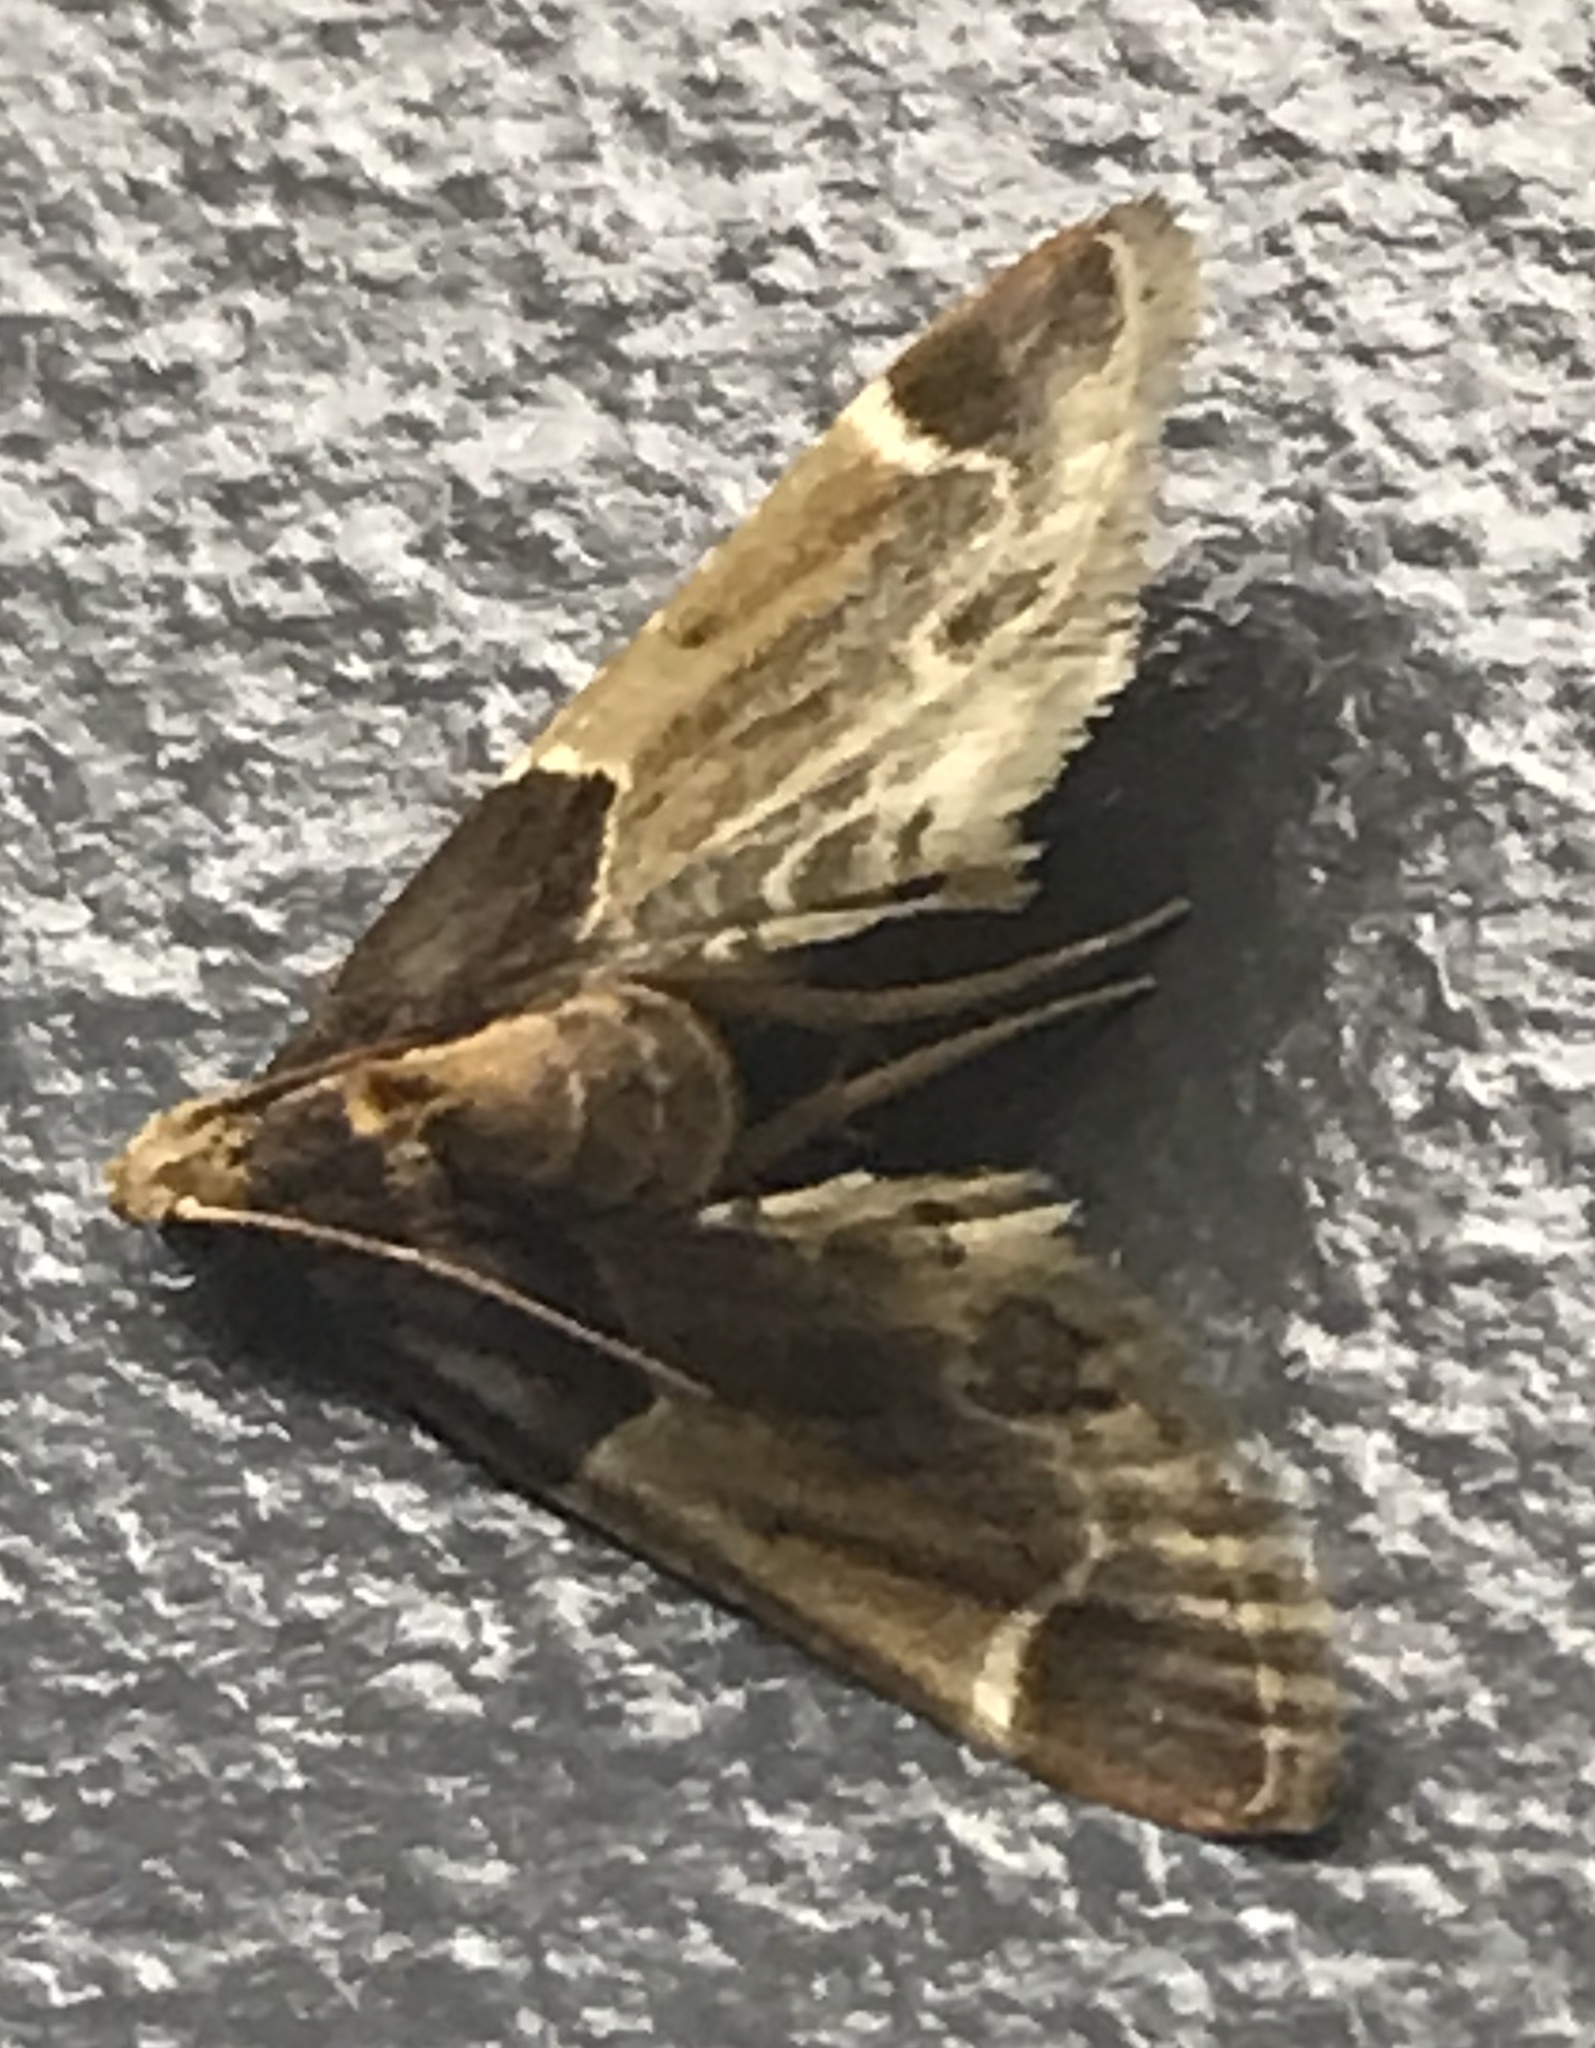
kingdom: Animalia
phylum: Arthropoda
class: Insecta
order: Lepidoptera
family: Pyralidae
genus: Pyralis
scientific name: Pyralis farinalis
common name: Meal moth
